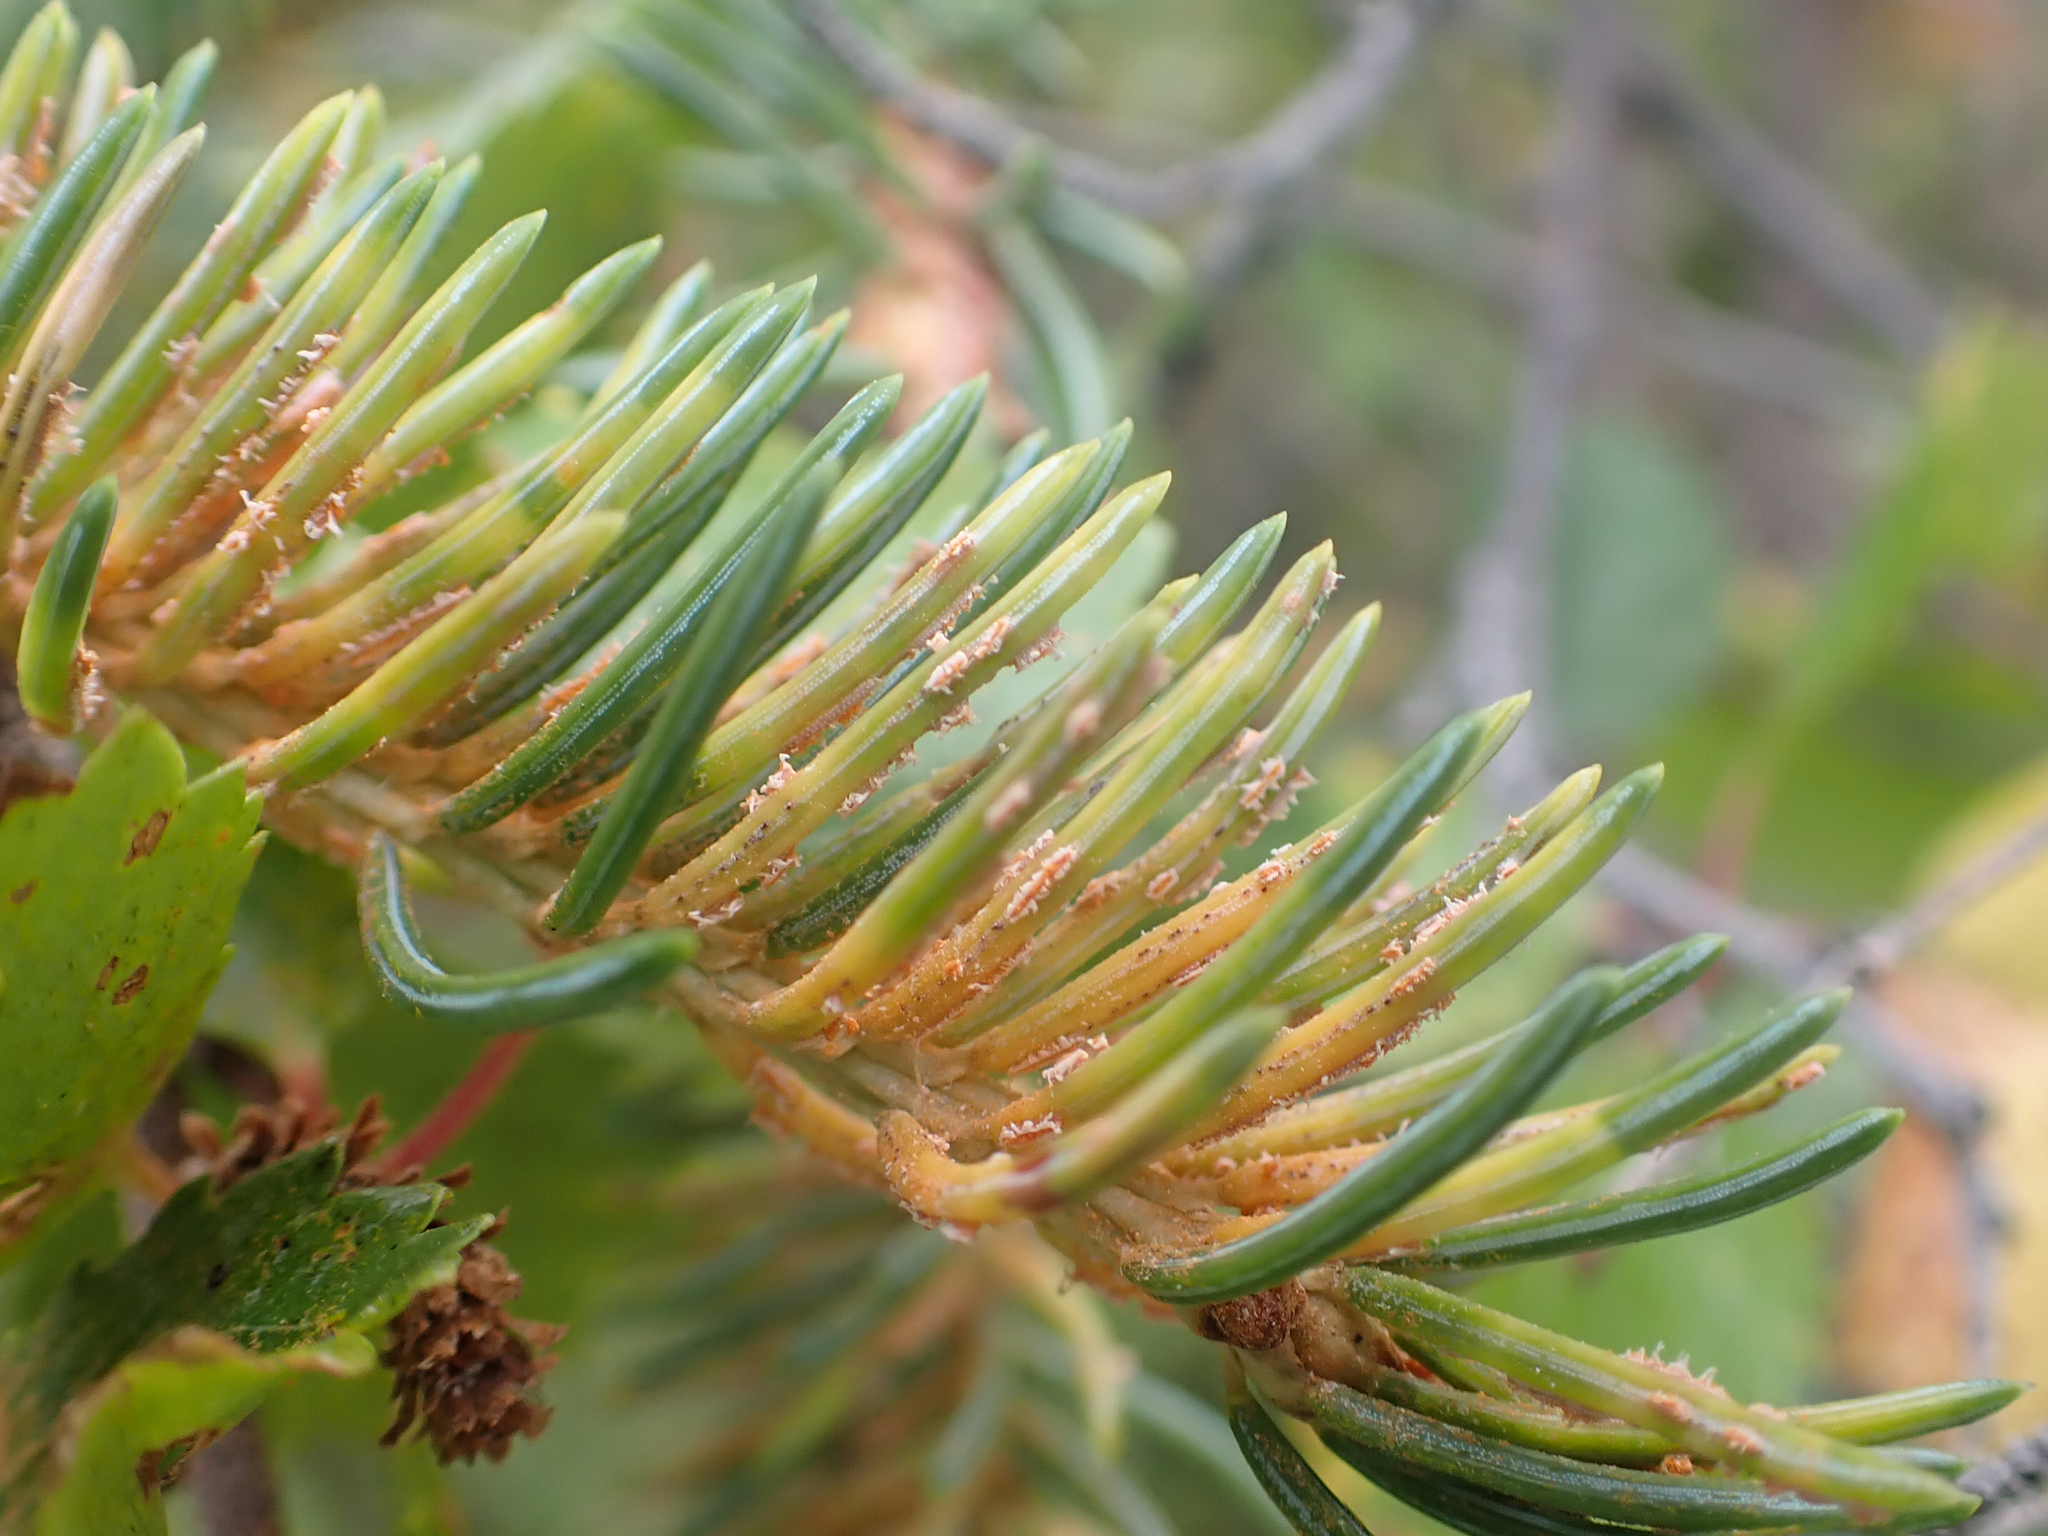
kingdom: Fungi
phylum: Basidiomycota
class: Pucciniomycetes
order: Pucciniales
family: Coleosporiaceae
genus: Chrysomyxa
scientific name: Chrysomyxa ledicola
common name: Spruce-labrador tea needle rust
